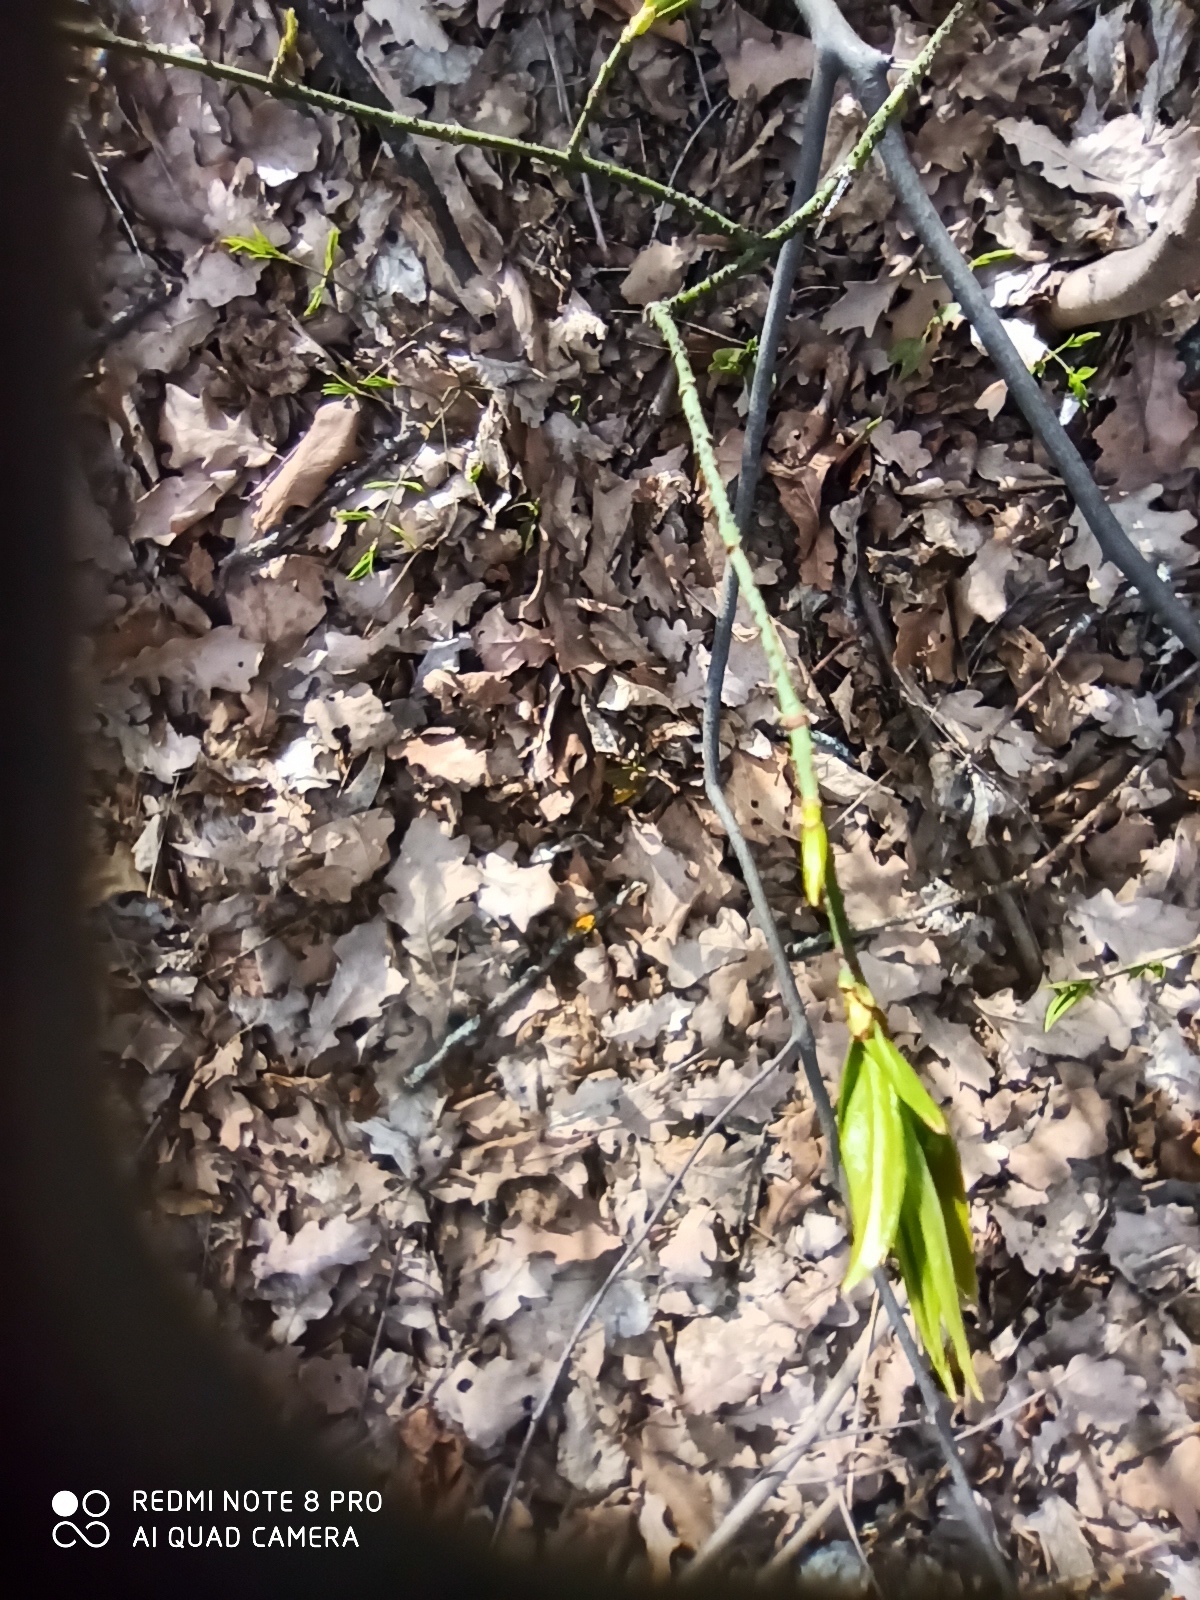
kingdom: Plantae
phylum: Tracheophyta
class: Magnoliopsida
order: Celastrales
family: Celastraceae
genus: Euonymus
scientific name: Euonymus verrucosus
